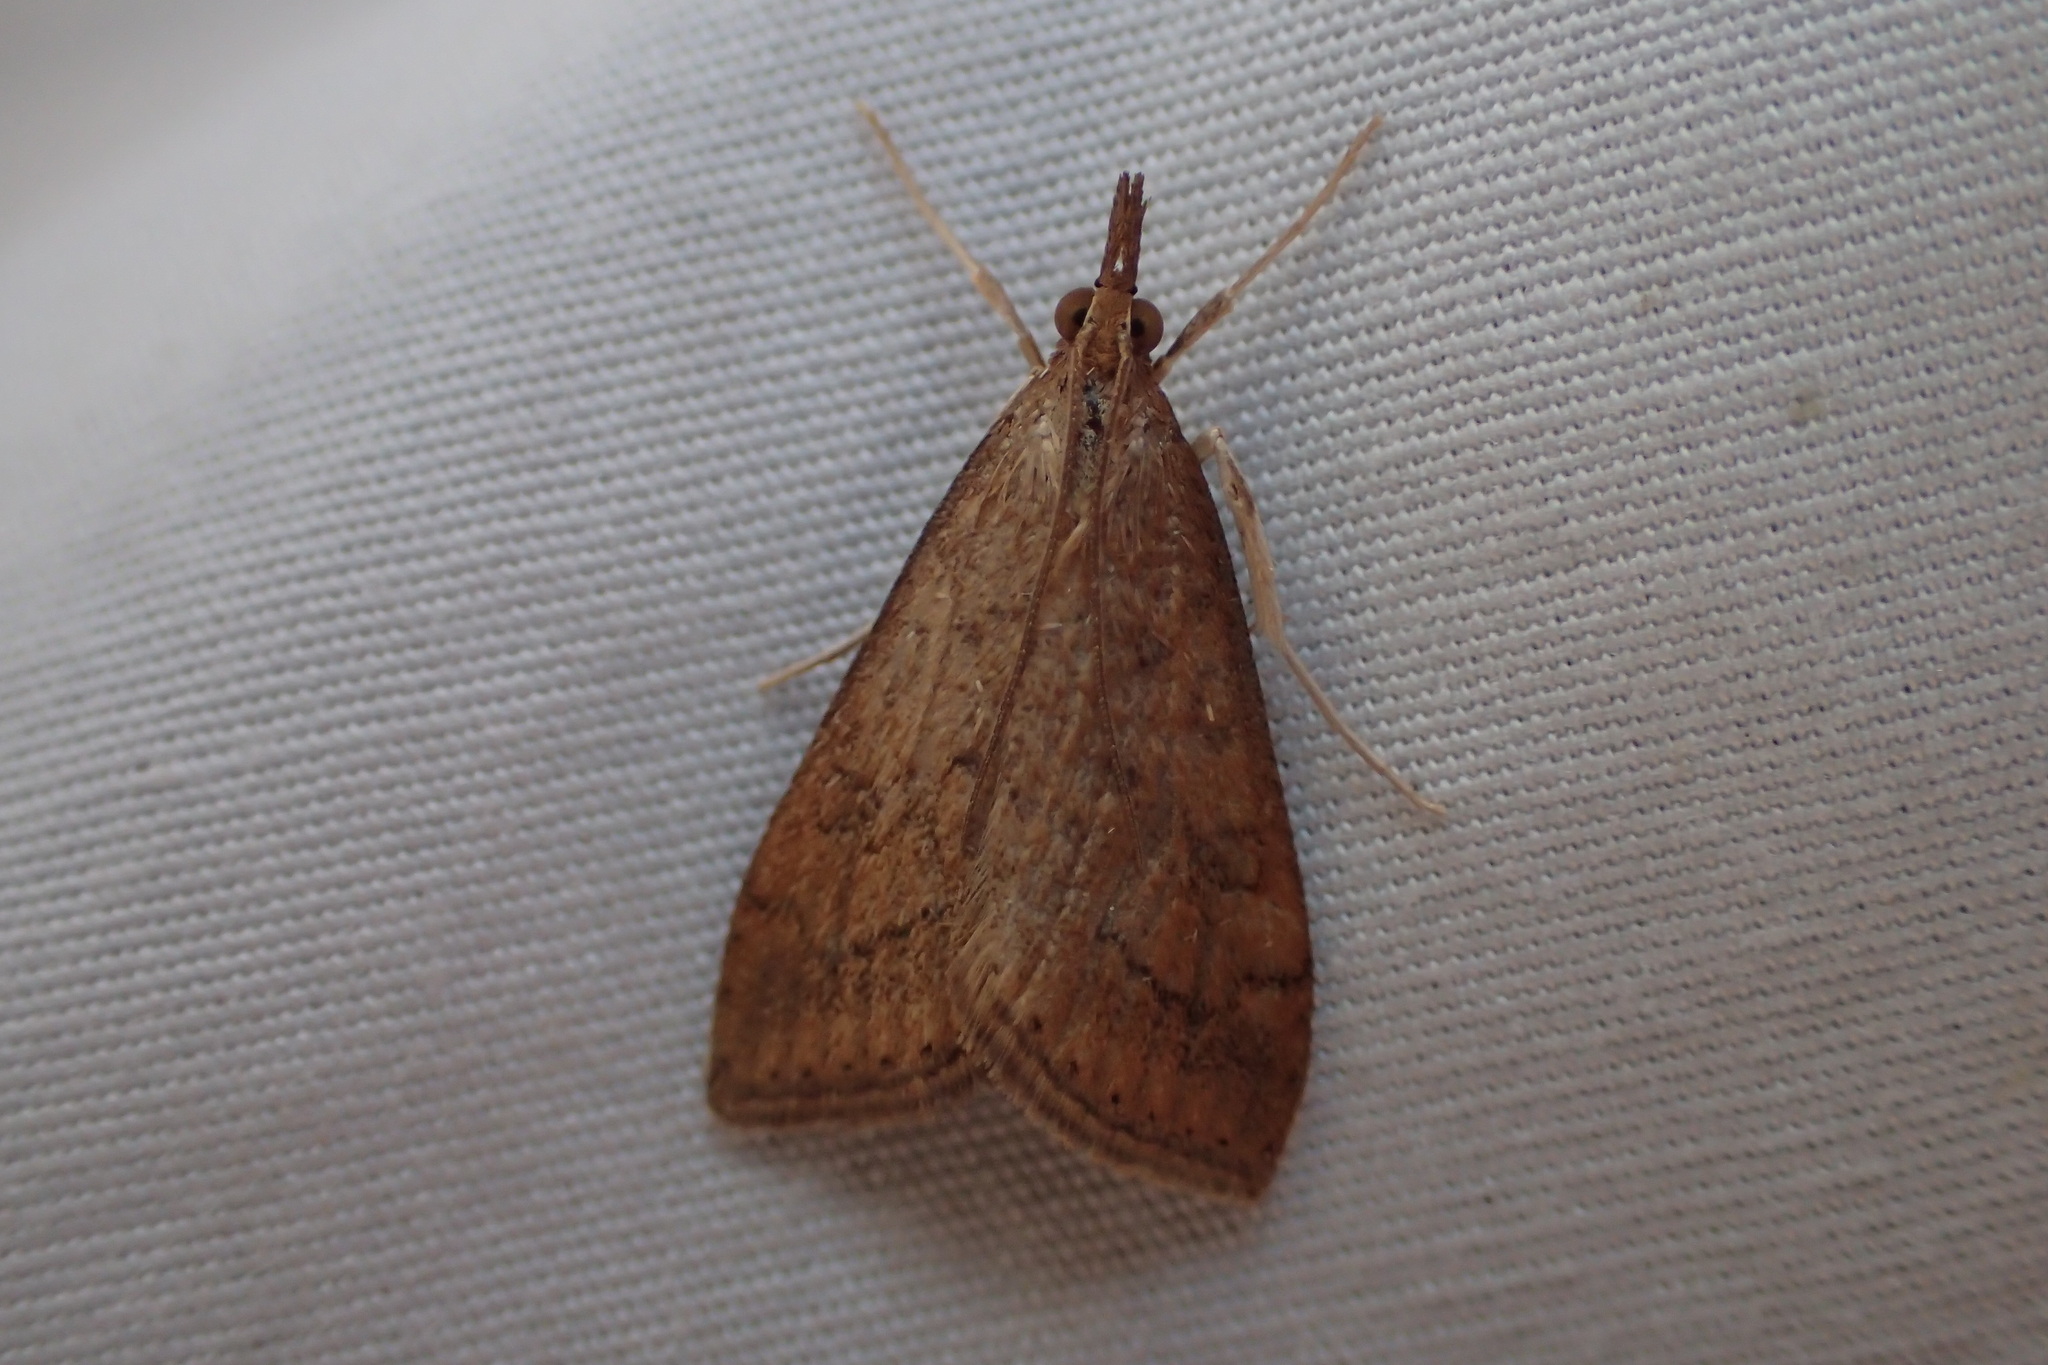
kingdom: Animalia
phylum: Arthropoda
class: Insecta
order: Lepidoptera
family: Crambidae
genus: Udea
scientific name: Udea rubigalis
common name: Celery leaftier moth
